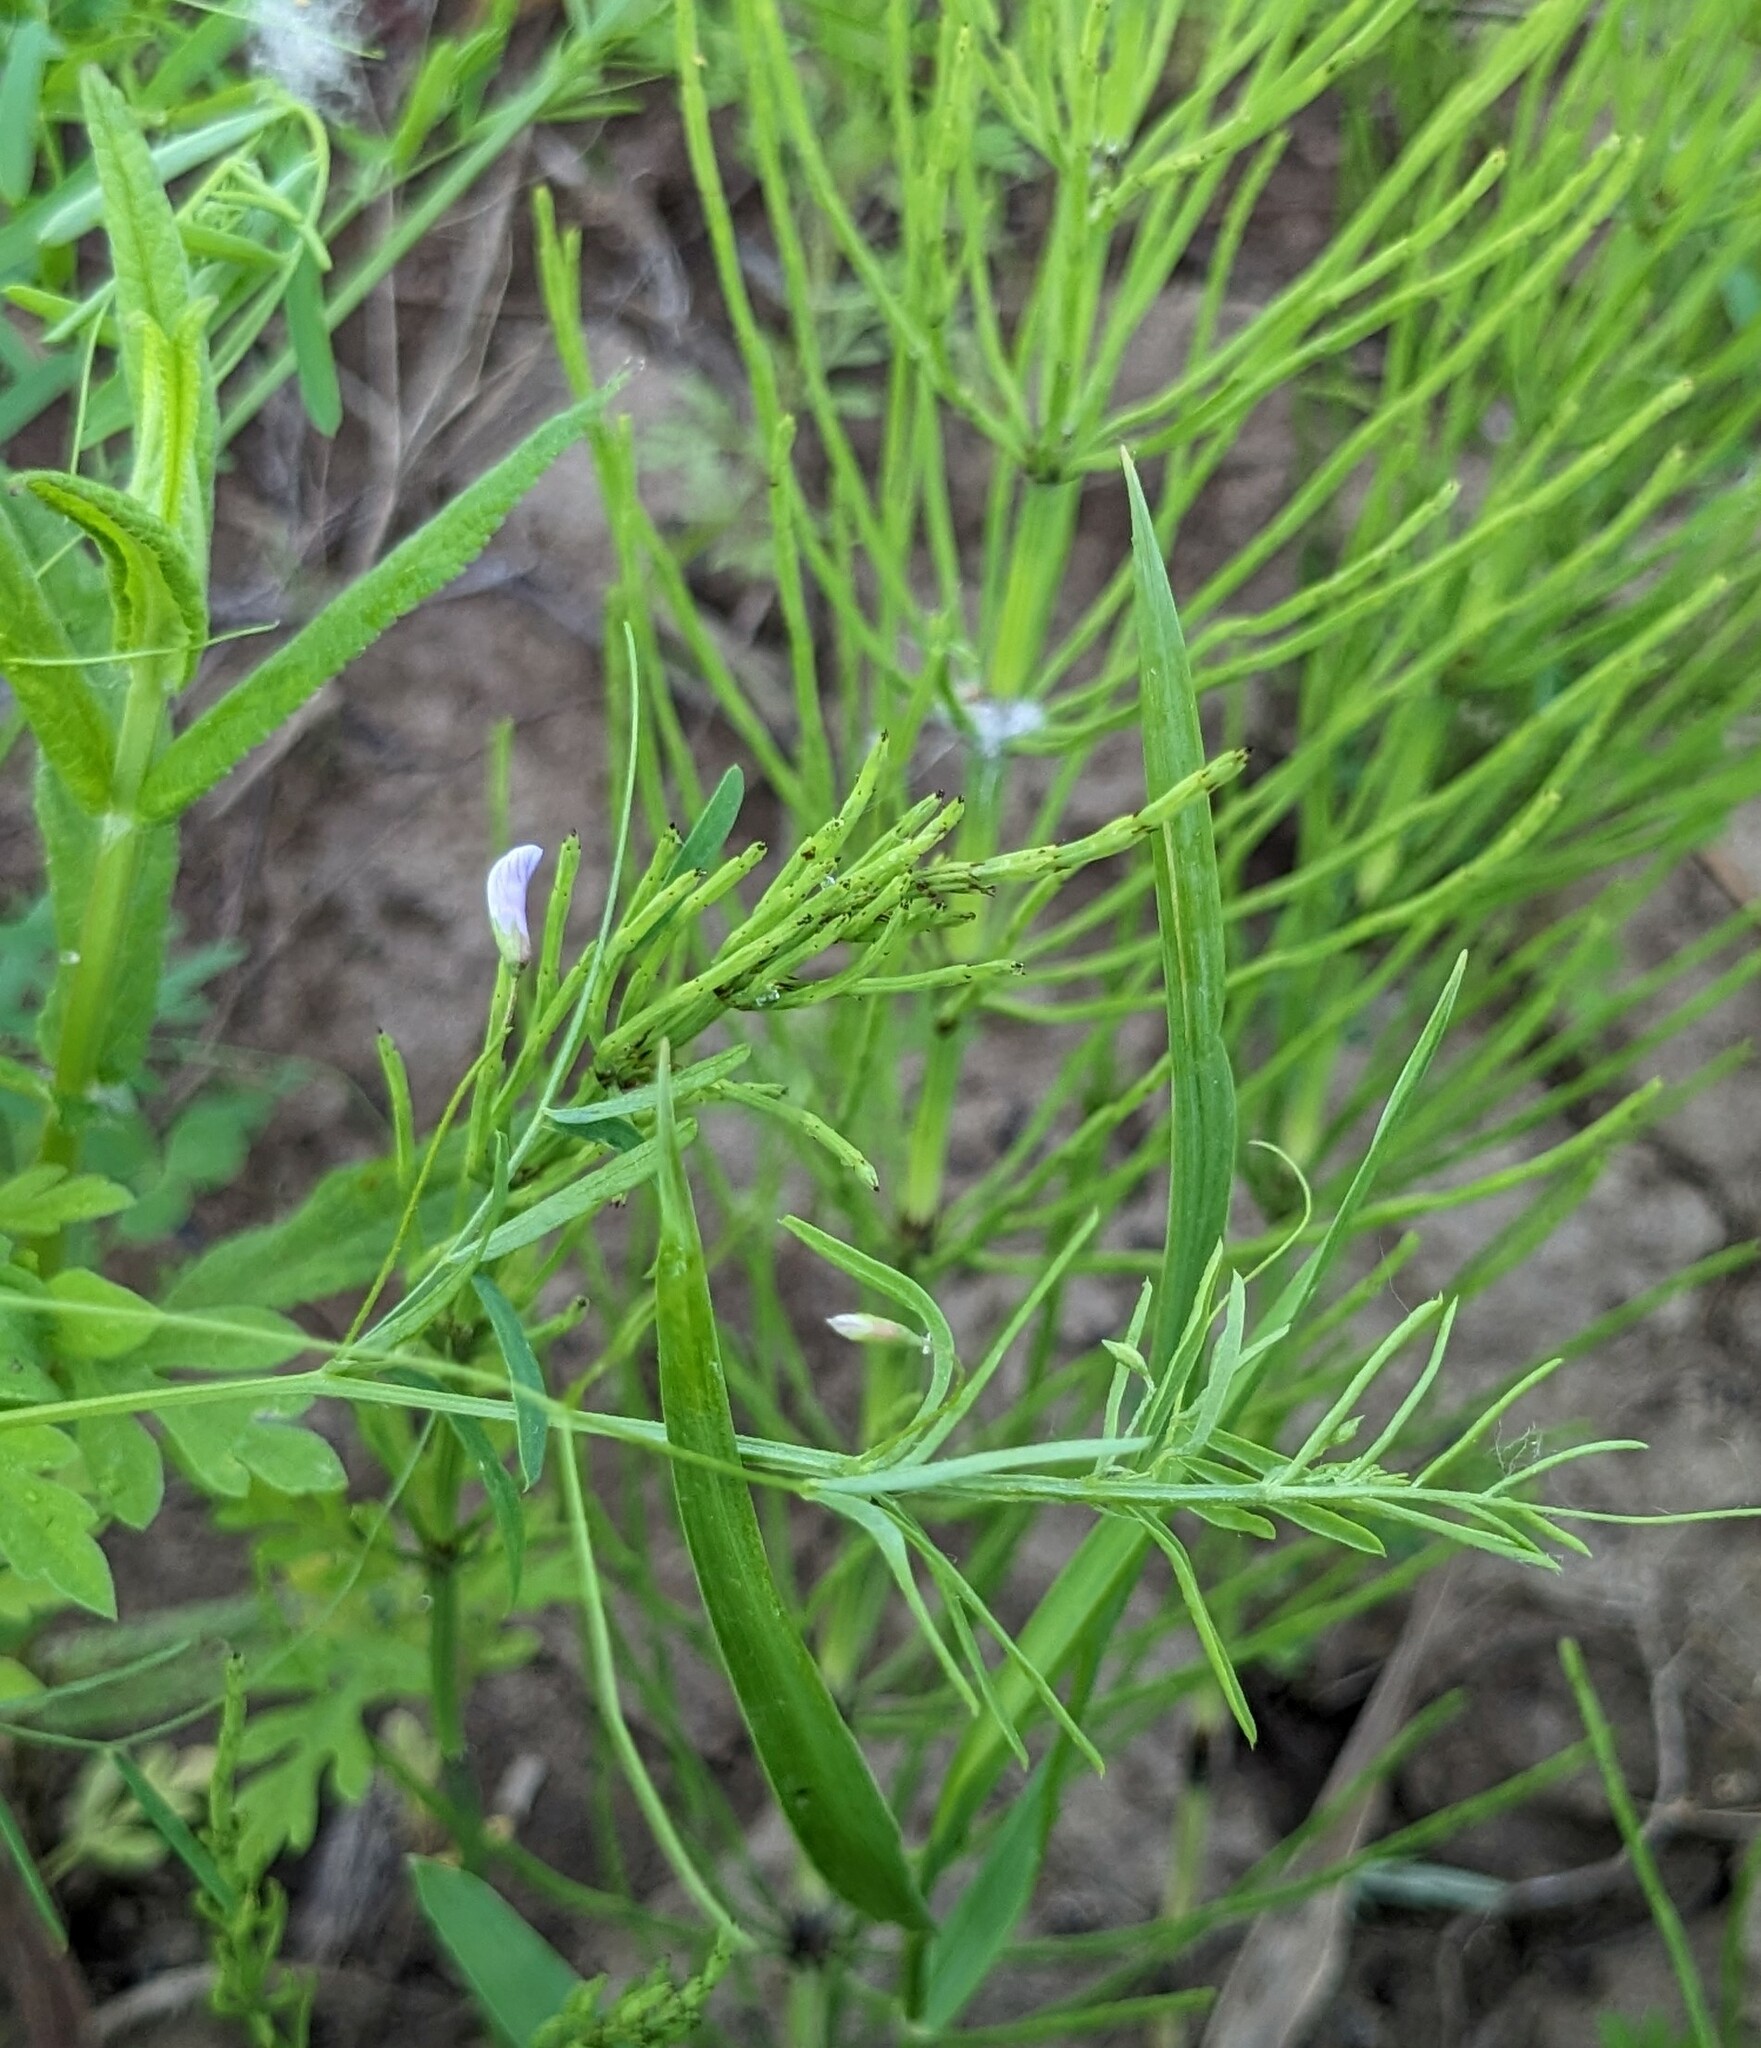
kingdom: Plantae
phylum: Tracheophyta
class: Magnoliopsida
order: Fabales
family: Fabaceae
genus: Vicia
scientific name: Vicia tetrasperma
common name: Smooth tare
